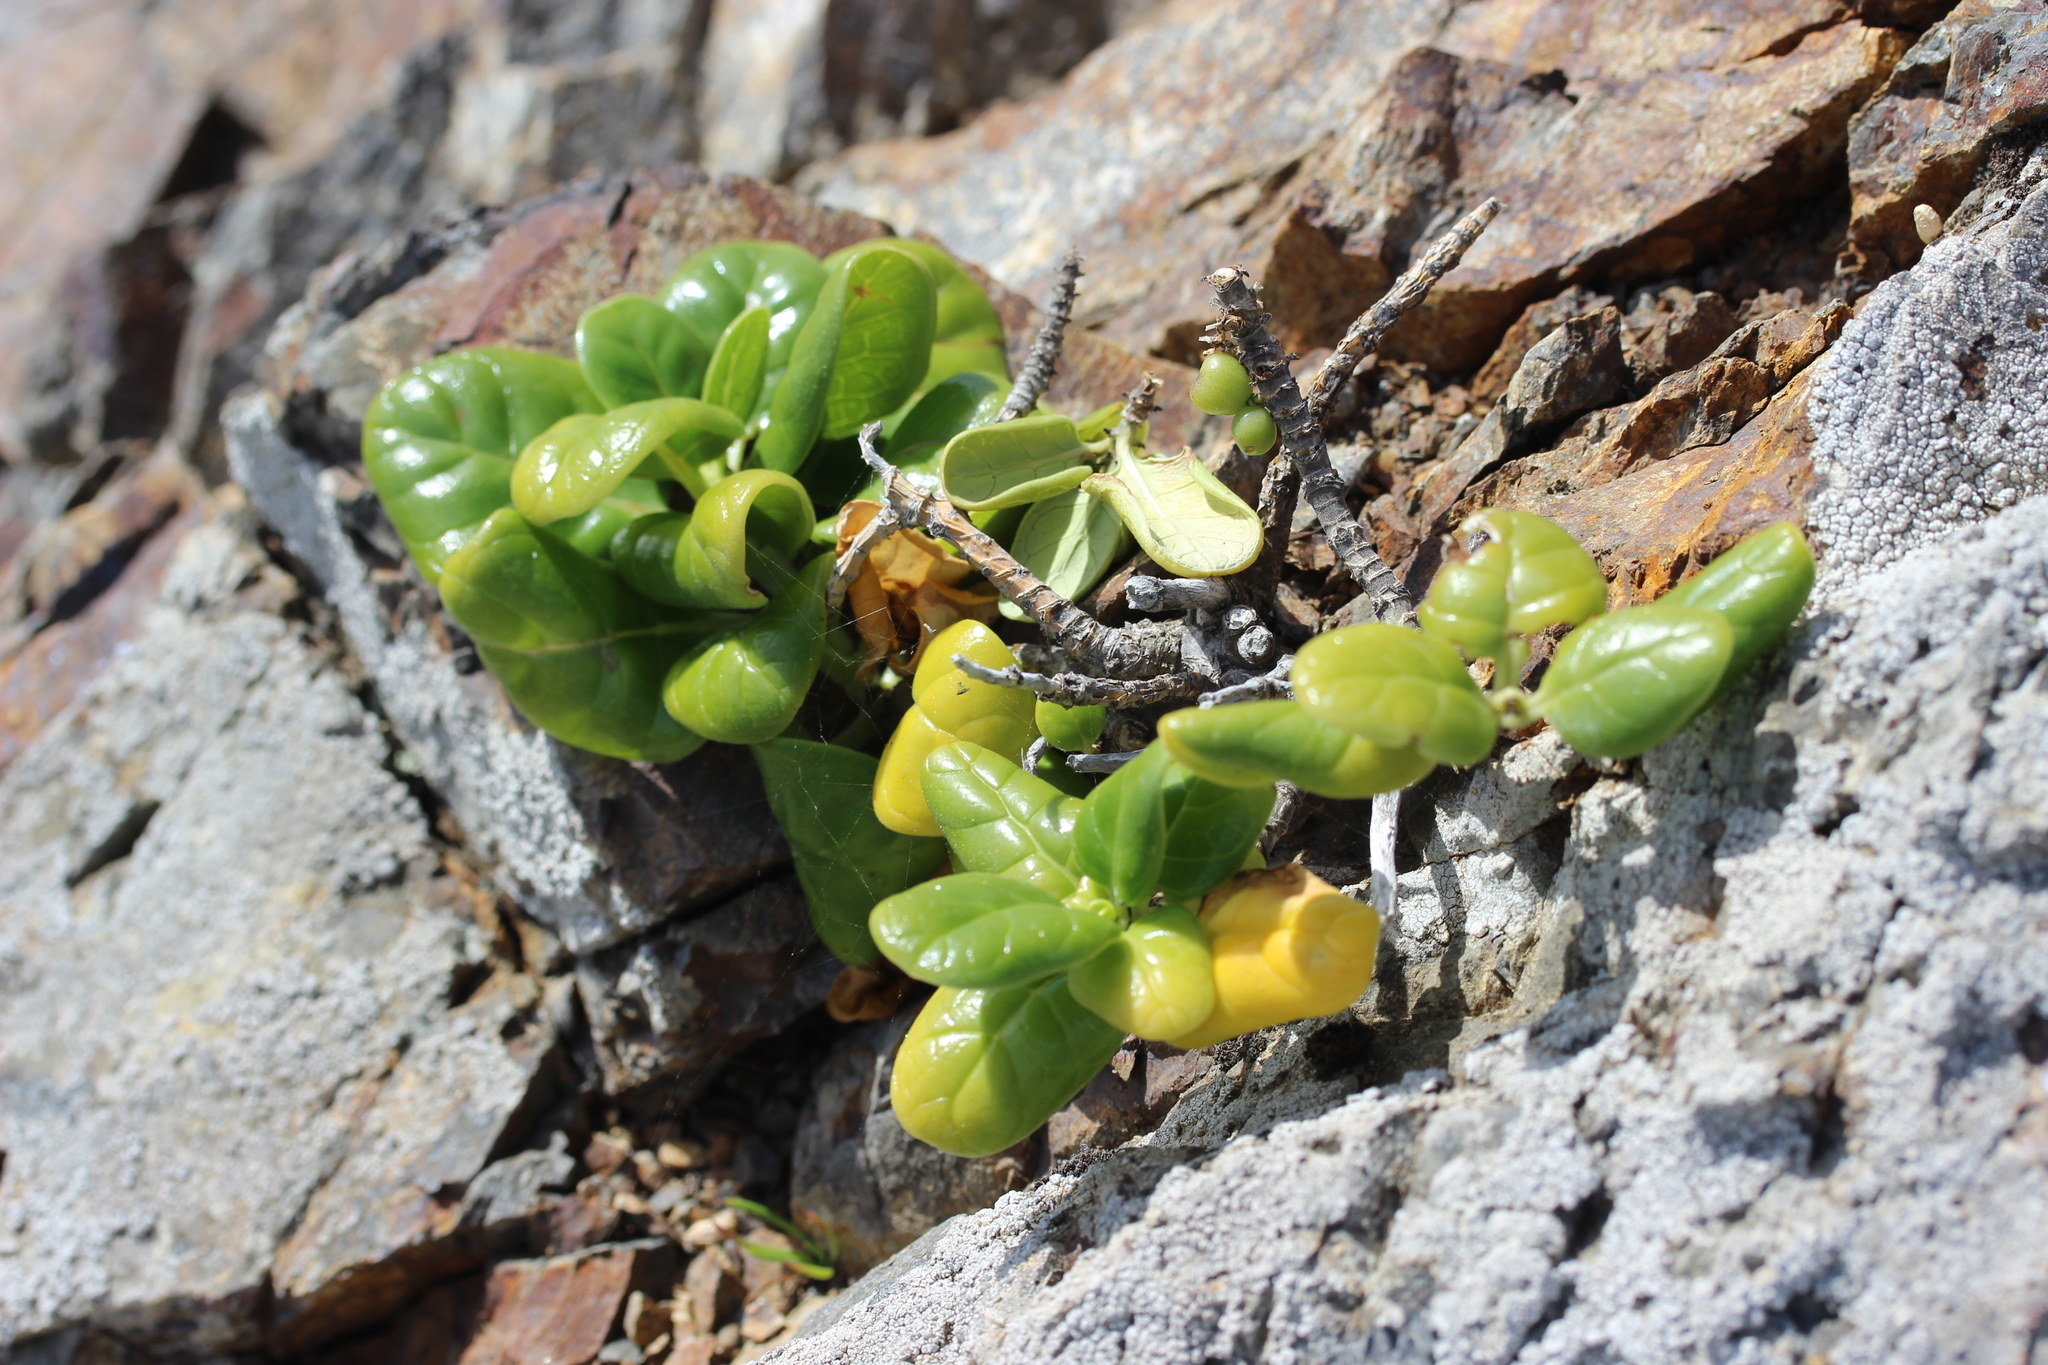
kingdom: Plantae
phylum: Tracheophyta
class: Magnoliopsida
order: Gentianales
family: Rubiaceae
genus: Coprosma
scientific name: Coprosma repens
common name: Tree bedstraw
